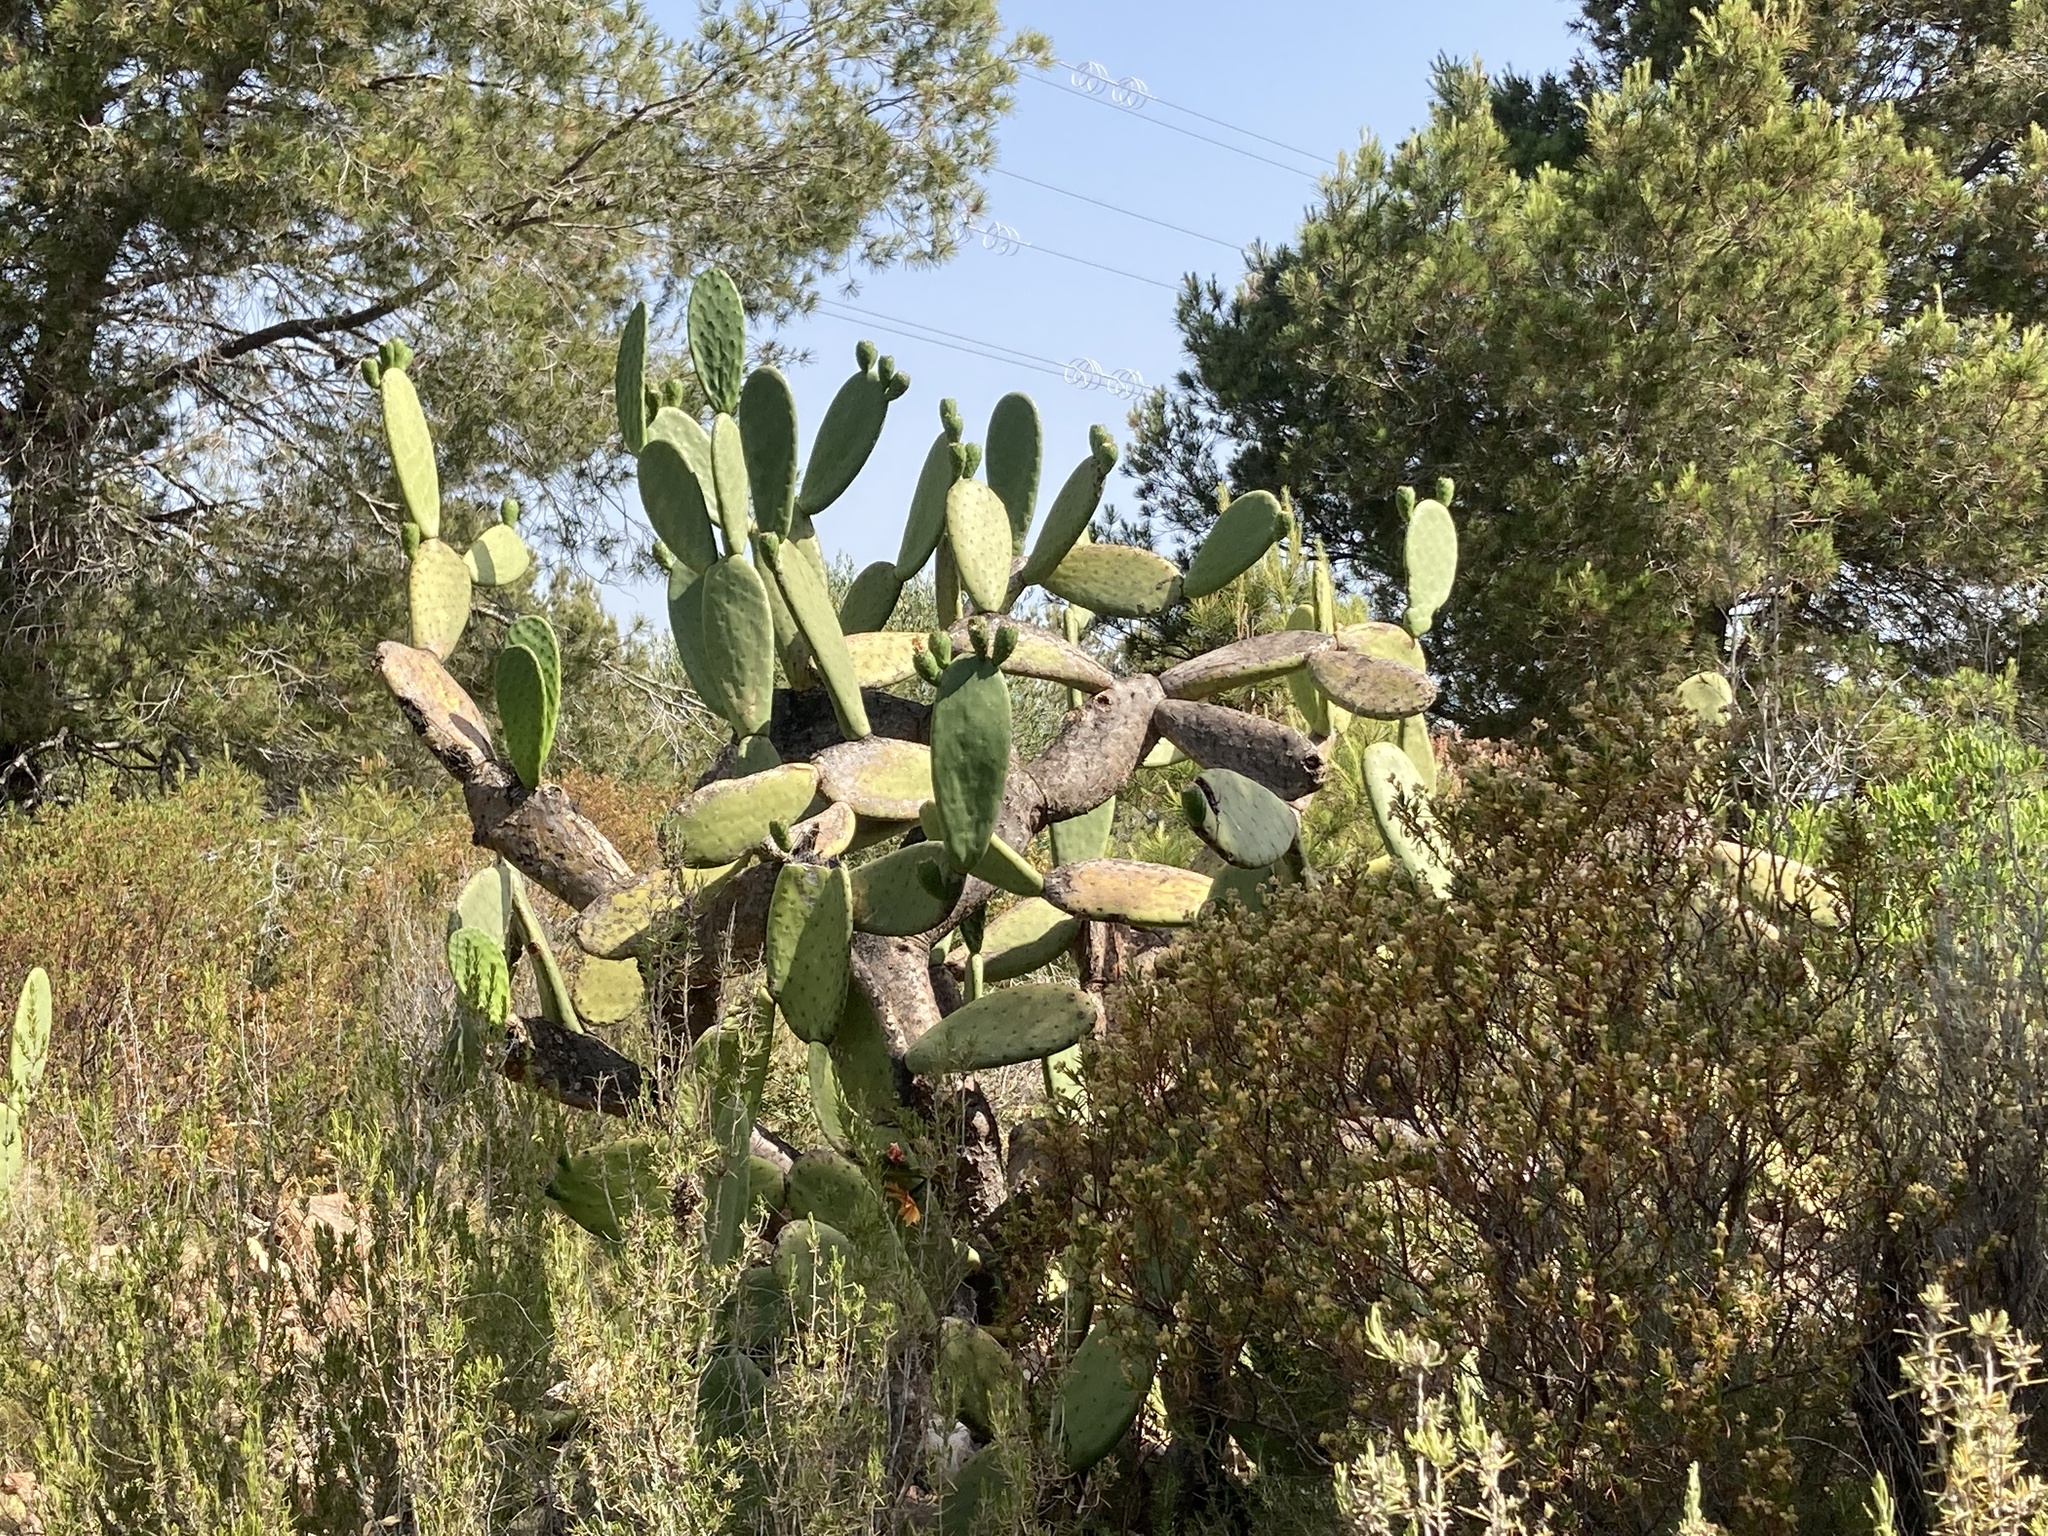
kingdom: Plantae
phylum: Tracheophyta
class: Magnoliopsida
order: Caryophyllales
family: Cactaceae
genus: Opuntia
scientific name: Opuntia ficus-indica
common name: Barbary fig
